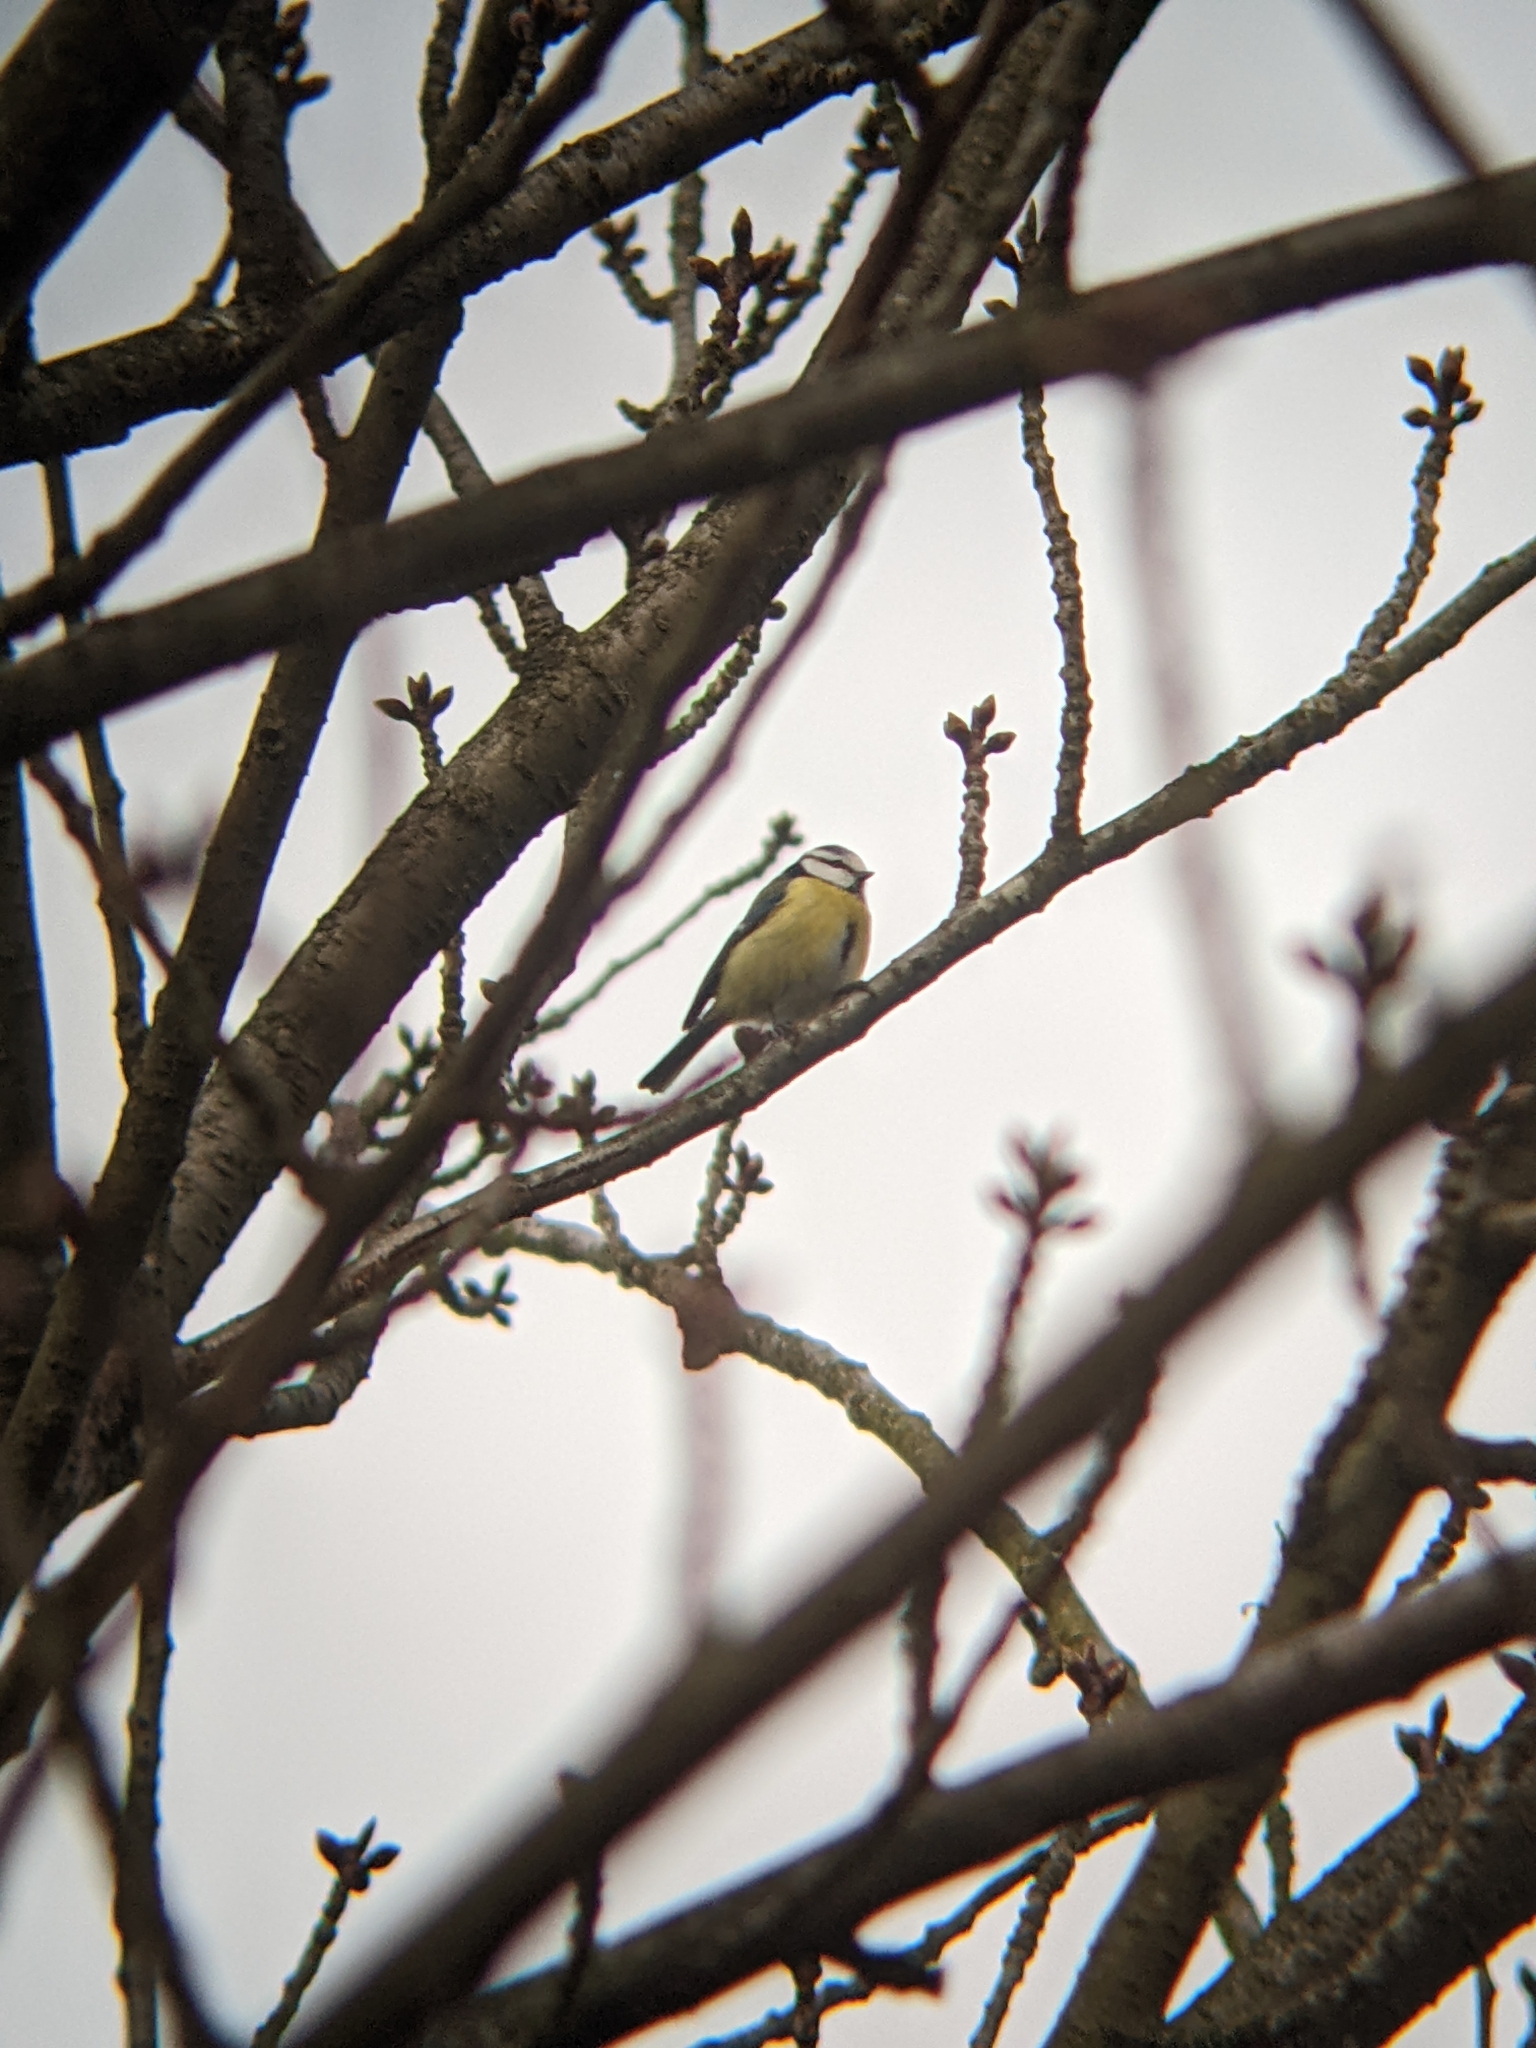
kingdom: Animalia
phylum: Chordata
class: Aves
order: Passeriformes
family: Paridae
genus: Cyanistes
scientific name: Cyanistes caeruleus
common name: Eurasian blue tit
